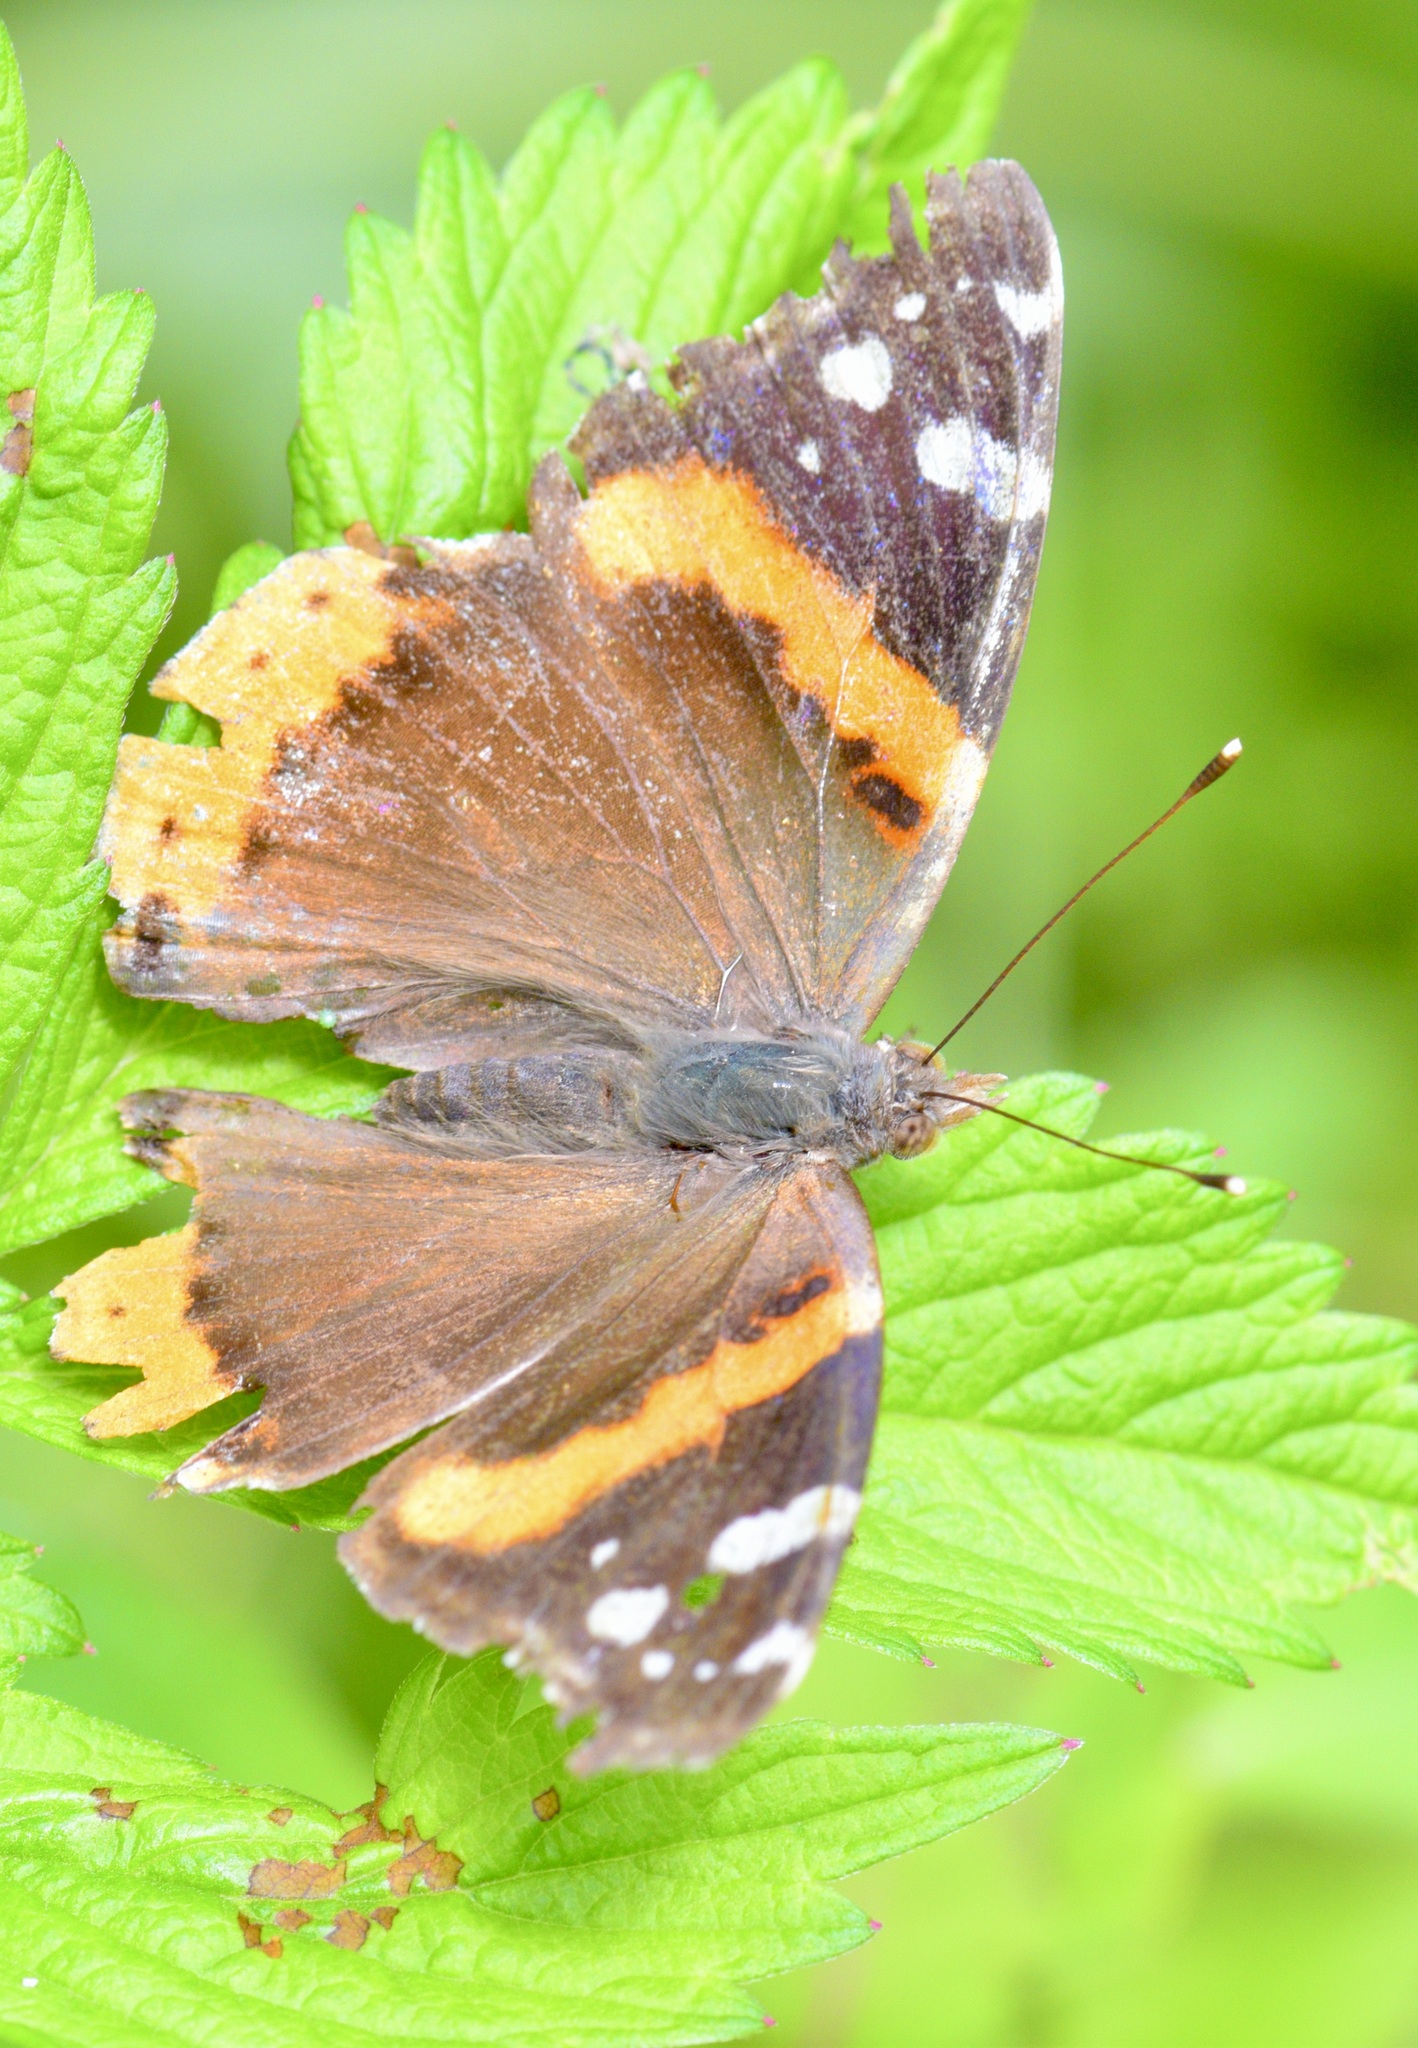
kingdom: Animalia
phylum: Arthropoda
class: Insecta
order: Lepidoptera
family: Nymphalidae
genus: Vanessa
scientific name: Vanessa atalanta
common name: Red admiral
